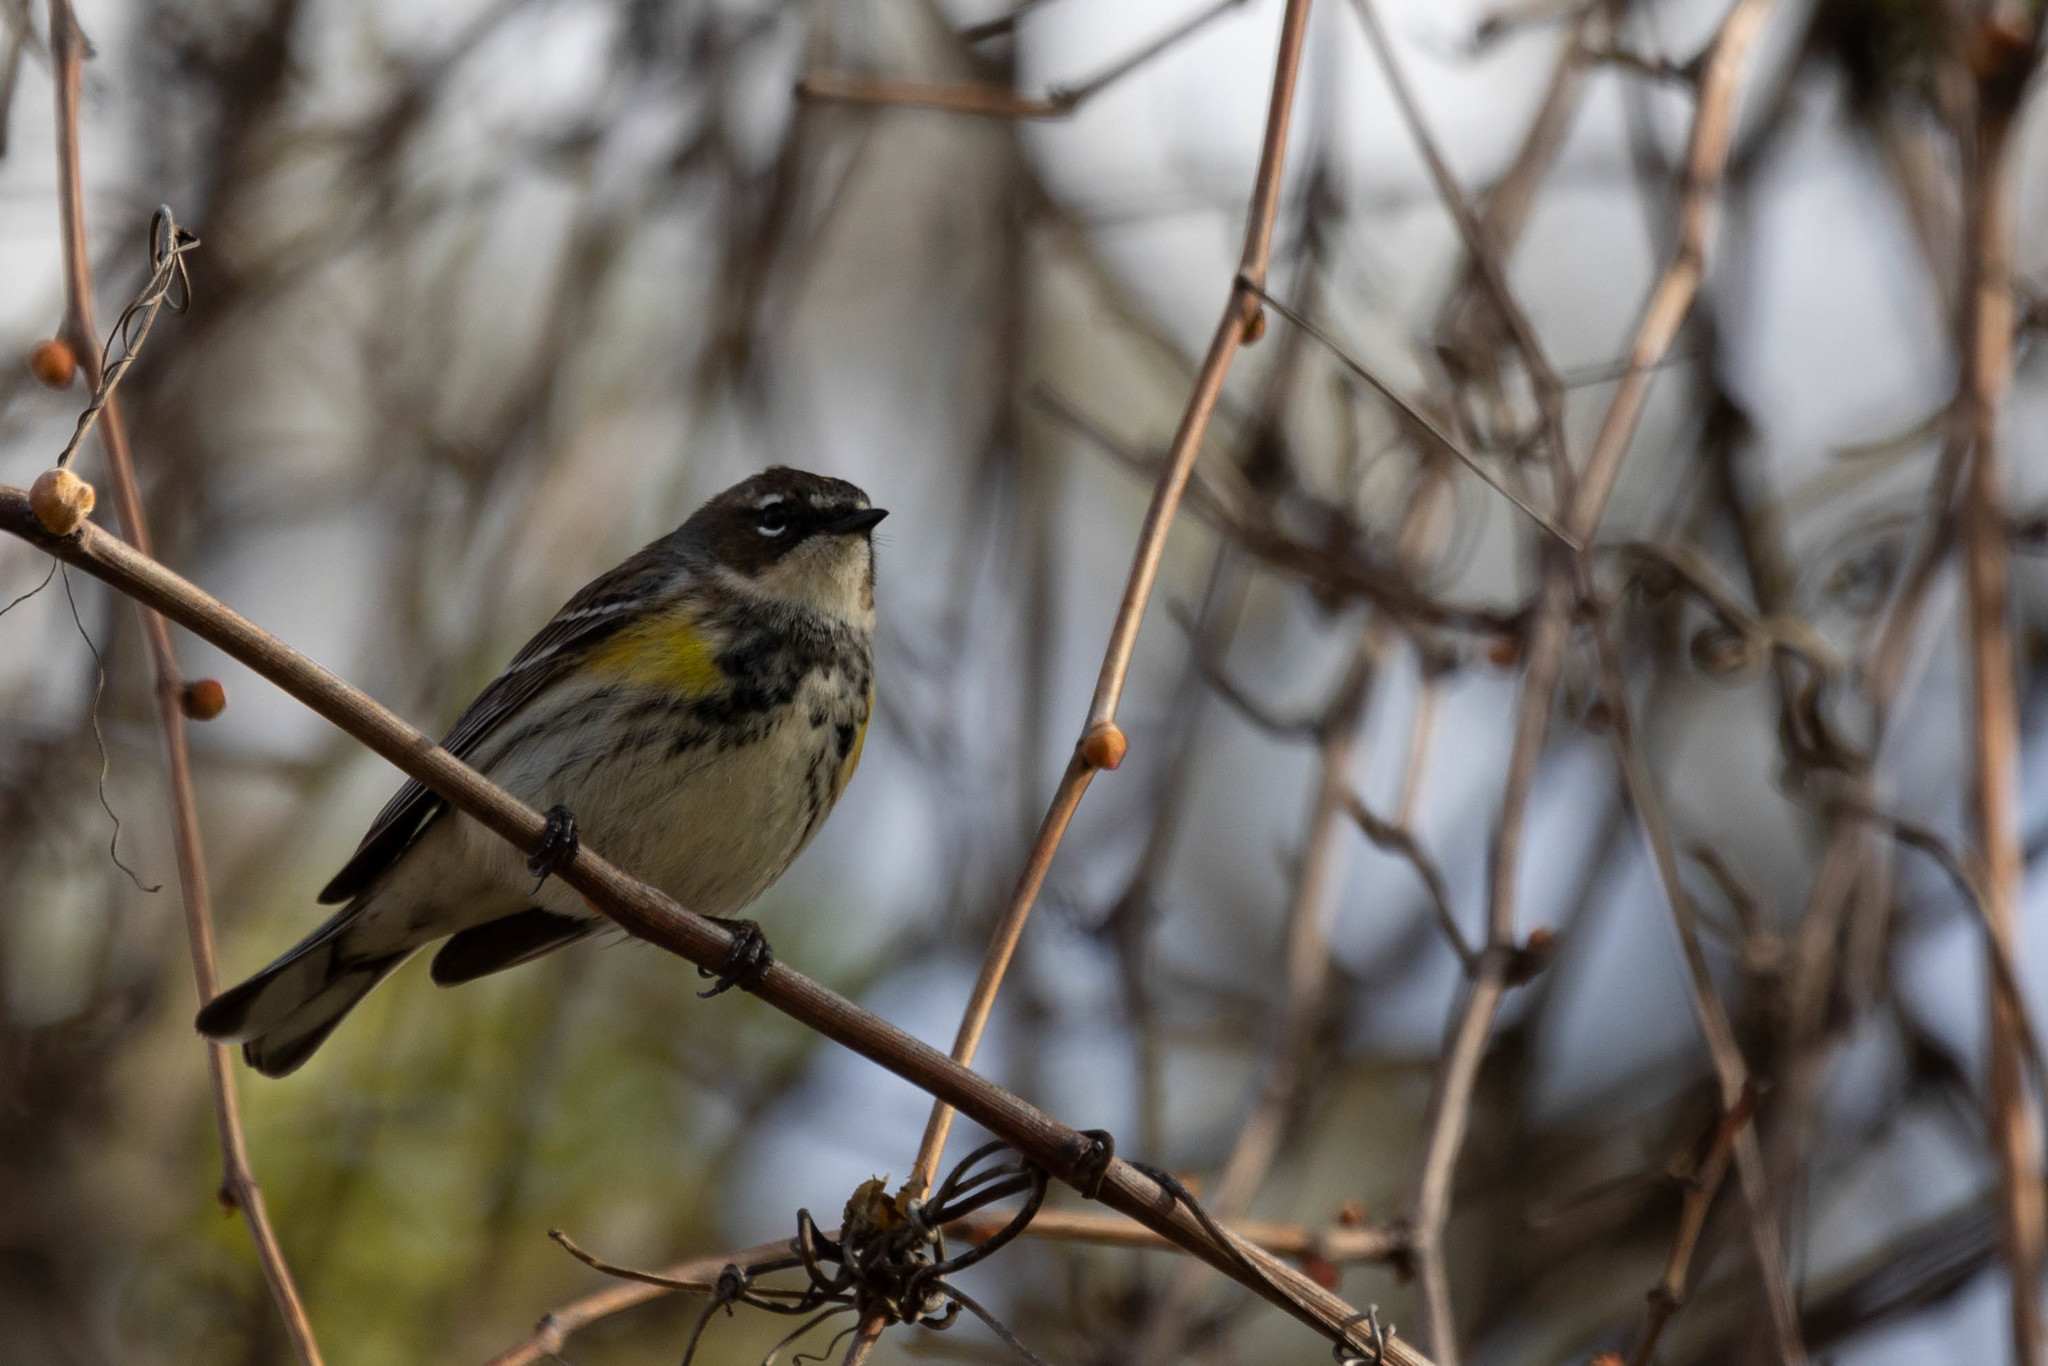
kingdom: Animalia
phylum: Chordata
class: Aves
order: Passeriformes
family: Parulidae
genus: Setophaga
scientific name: Setophaga coronata
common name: Myrtle warbler
